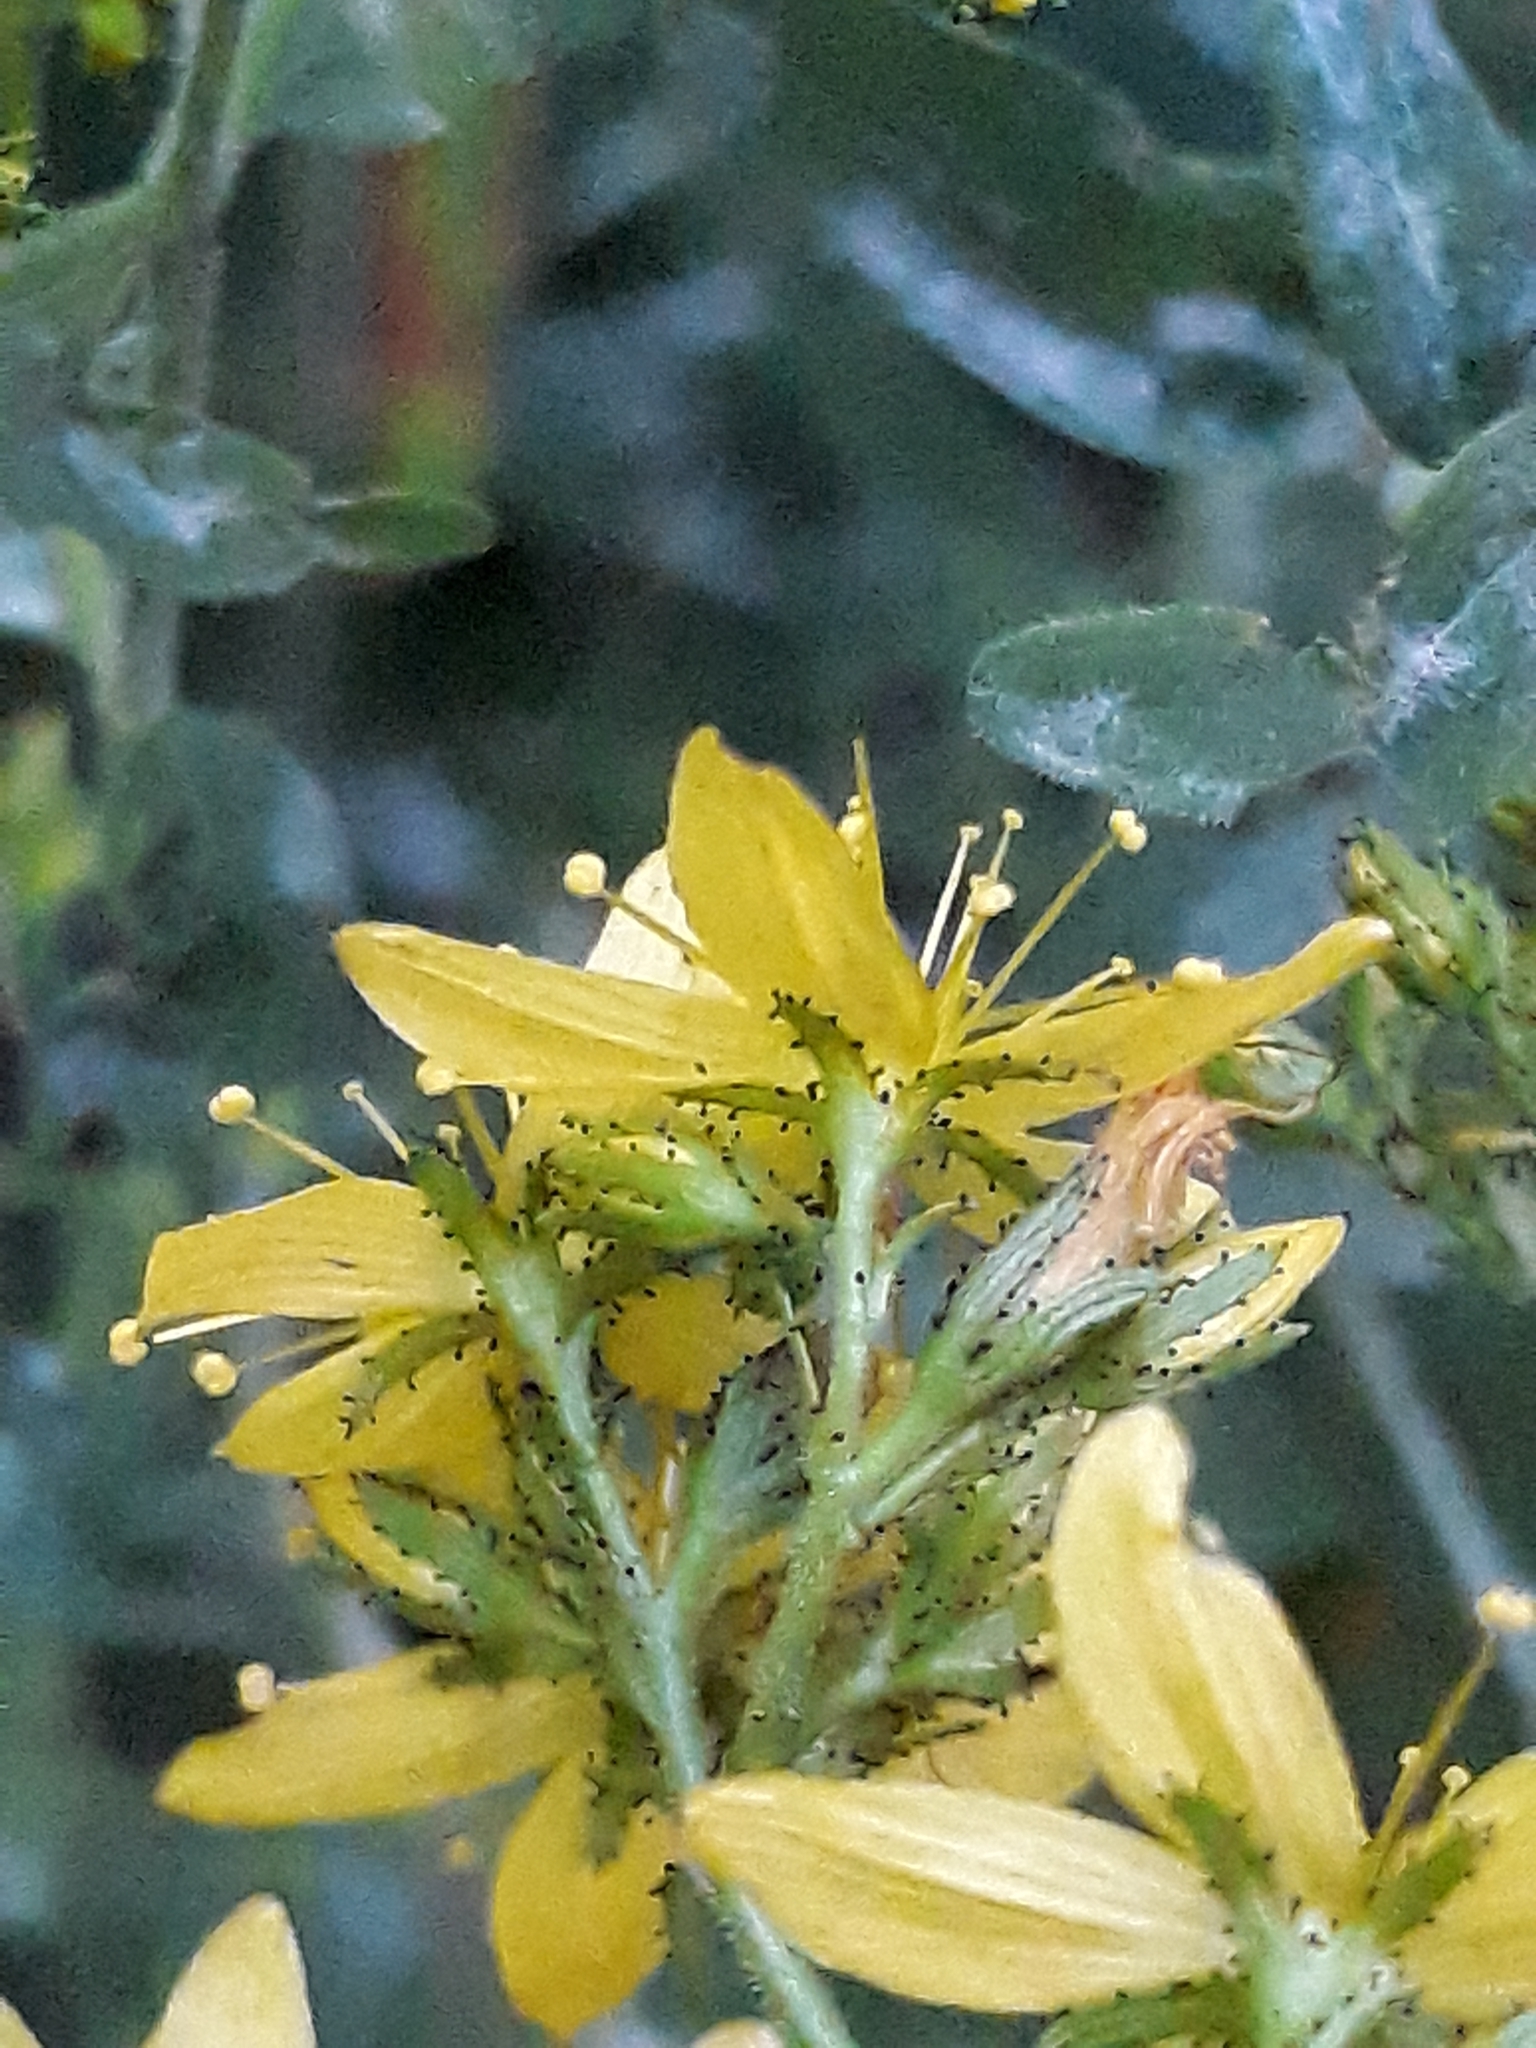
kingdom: Plantae
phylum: Tracheophyta
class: Magnoliopsida
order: Malpighiales
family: Hypericaceae
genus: Hypericum
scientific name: Hypericum hirsutum
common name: Hairy st. john's-wort
